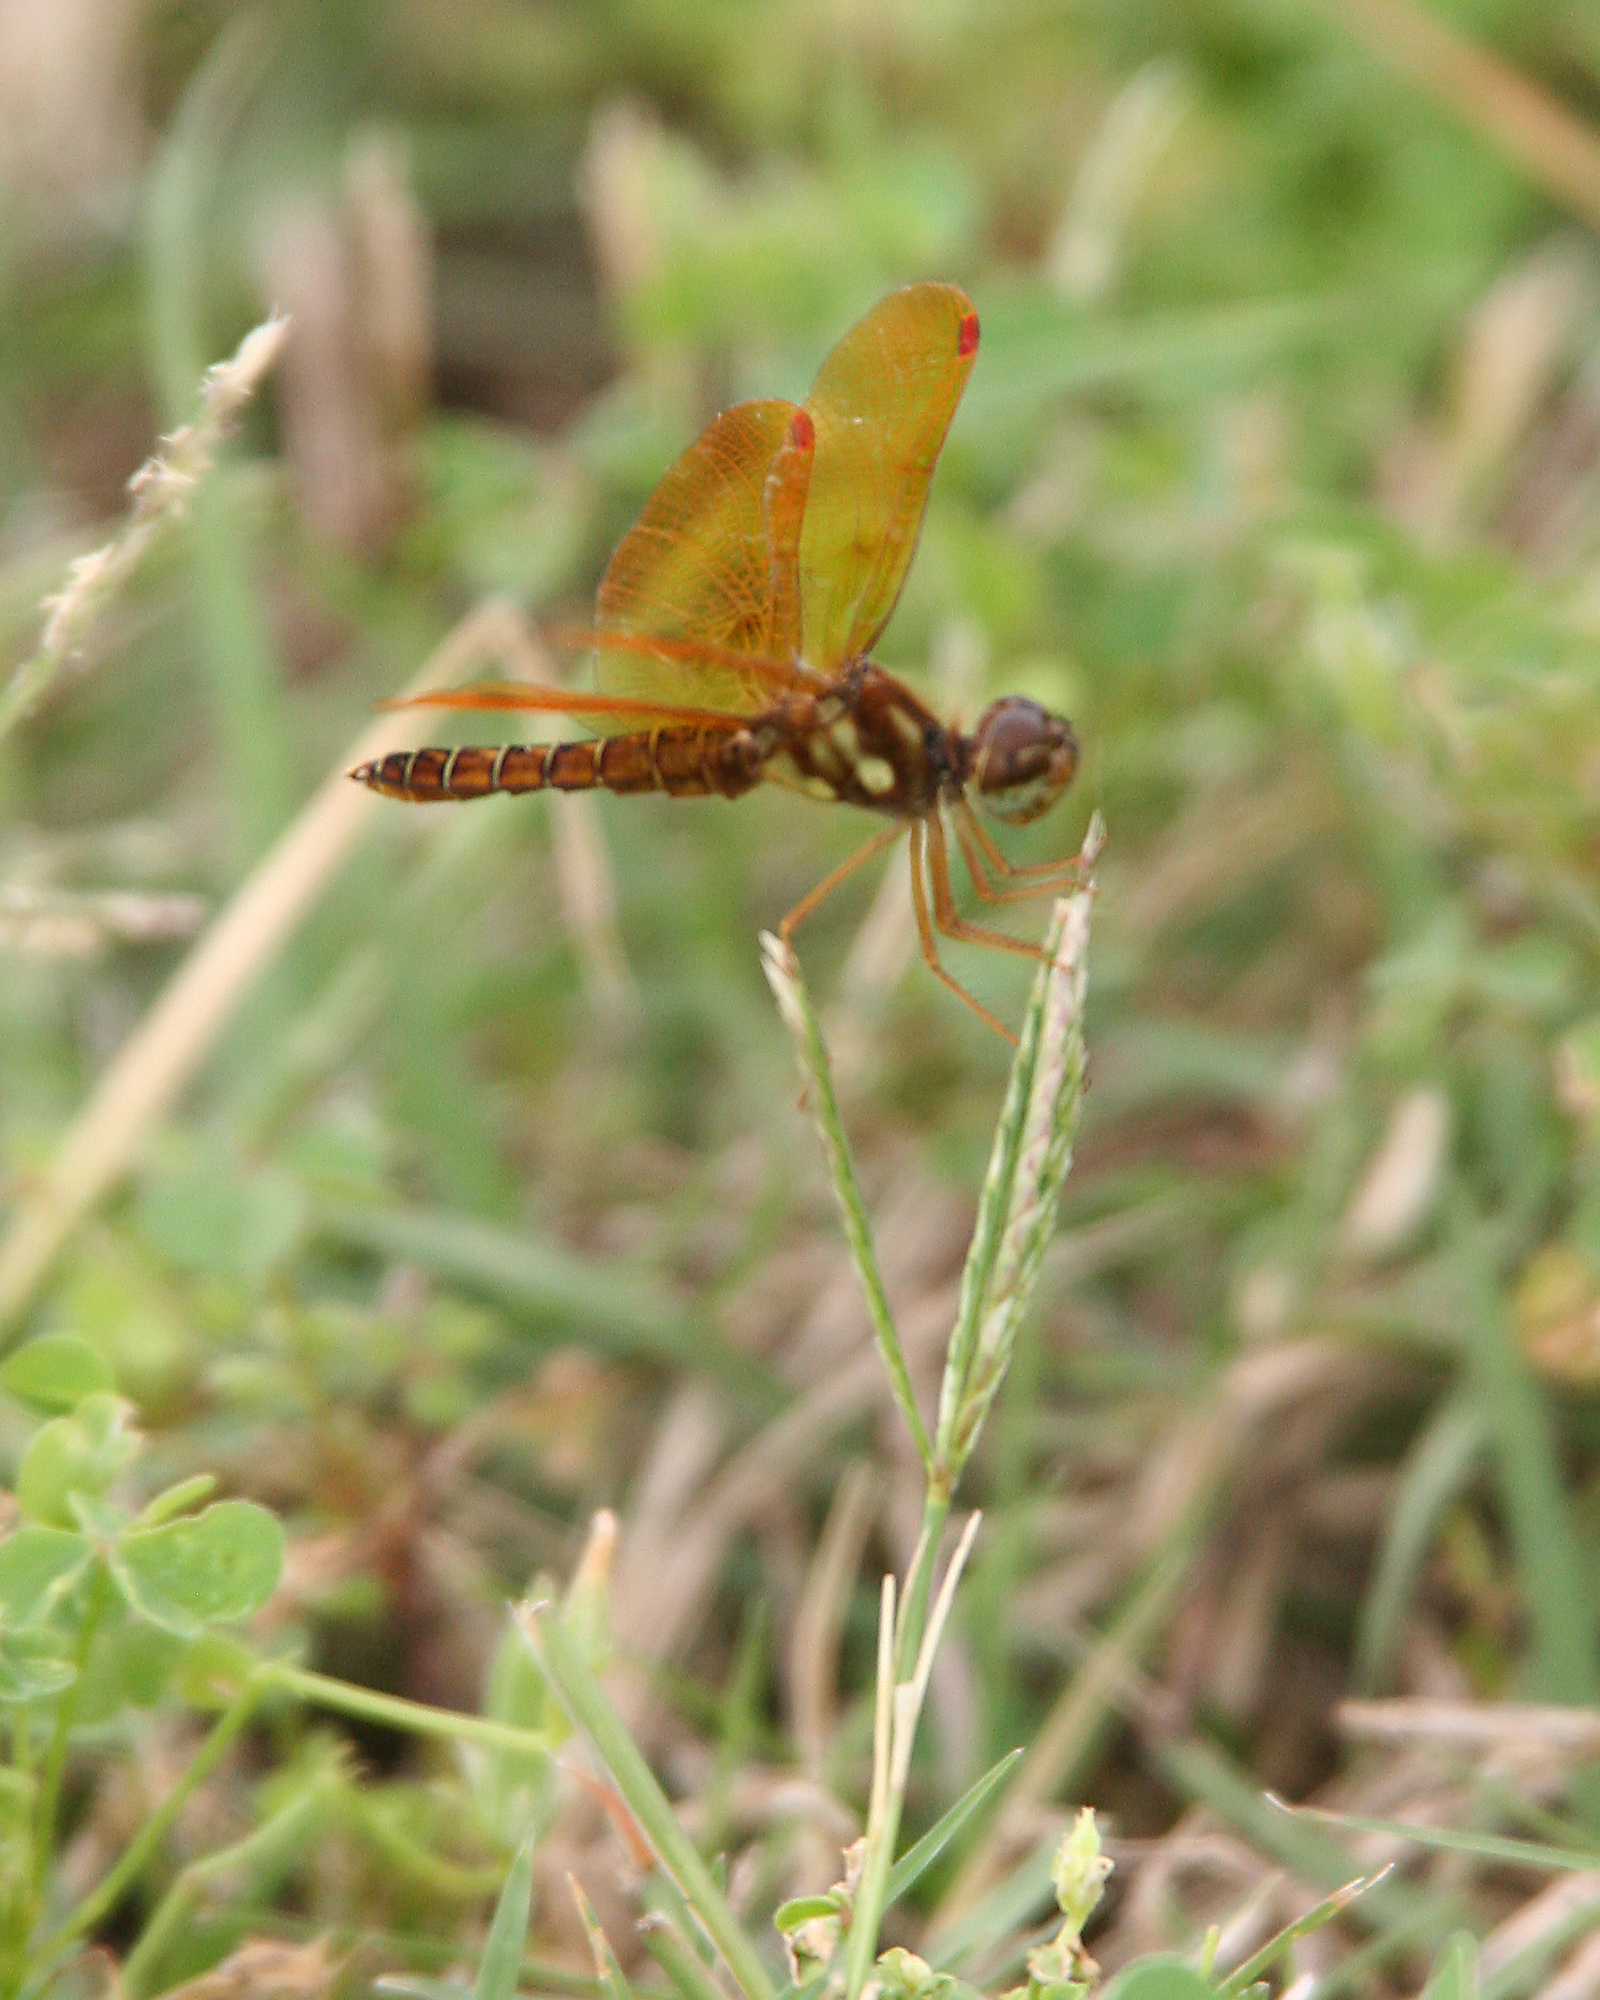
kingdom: Animalia
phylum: Arthropoda
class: Insecta
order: Odonata
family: Libellulidae
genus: Perithemis
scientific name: Perithemis tenera
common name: Eastern amberwing
